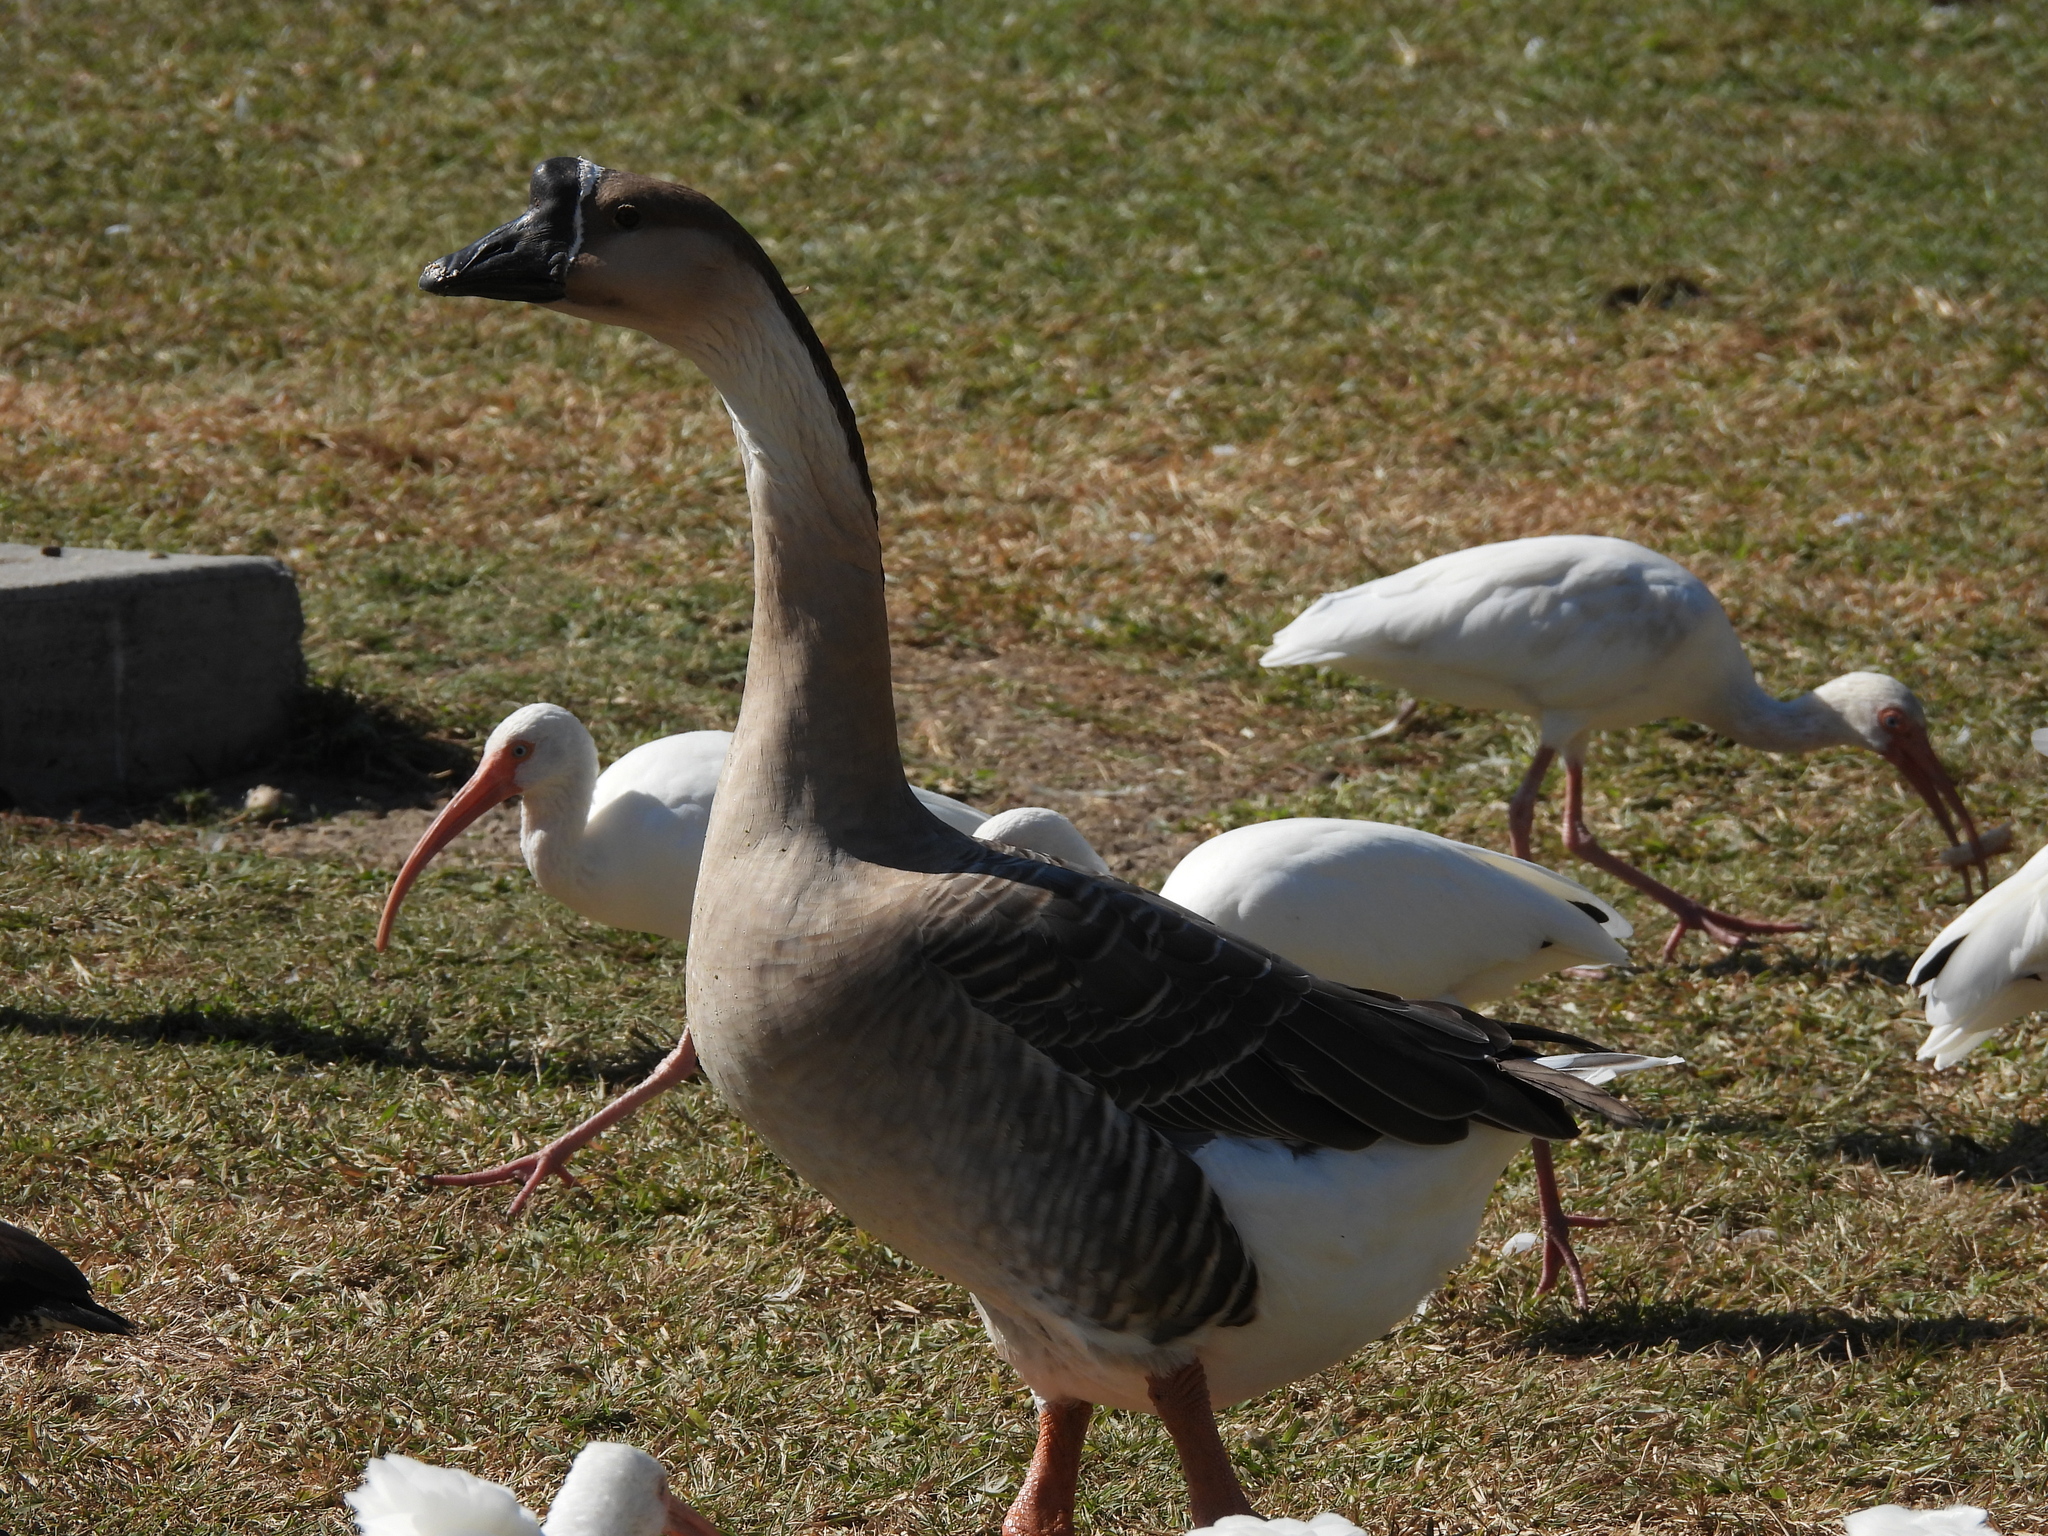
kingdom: Animalia
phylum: Chordata
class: Aves
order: Anseriformes
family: Anatidae
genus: Anser
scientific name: Anser cygnoides
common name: Swan goose
